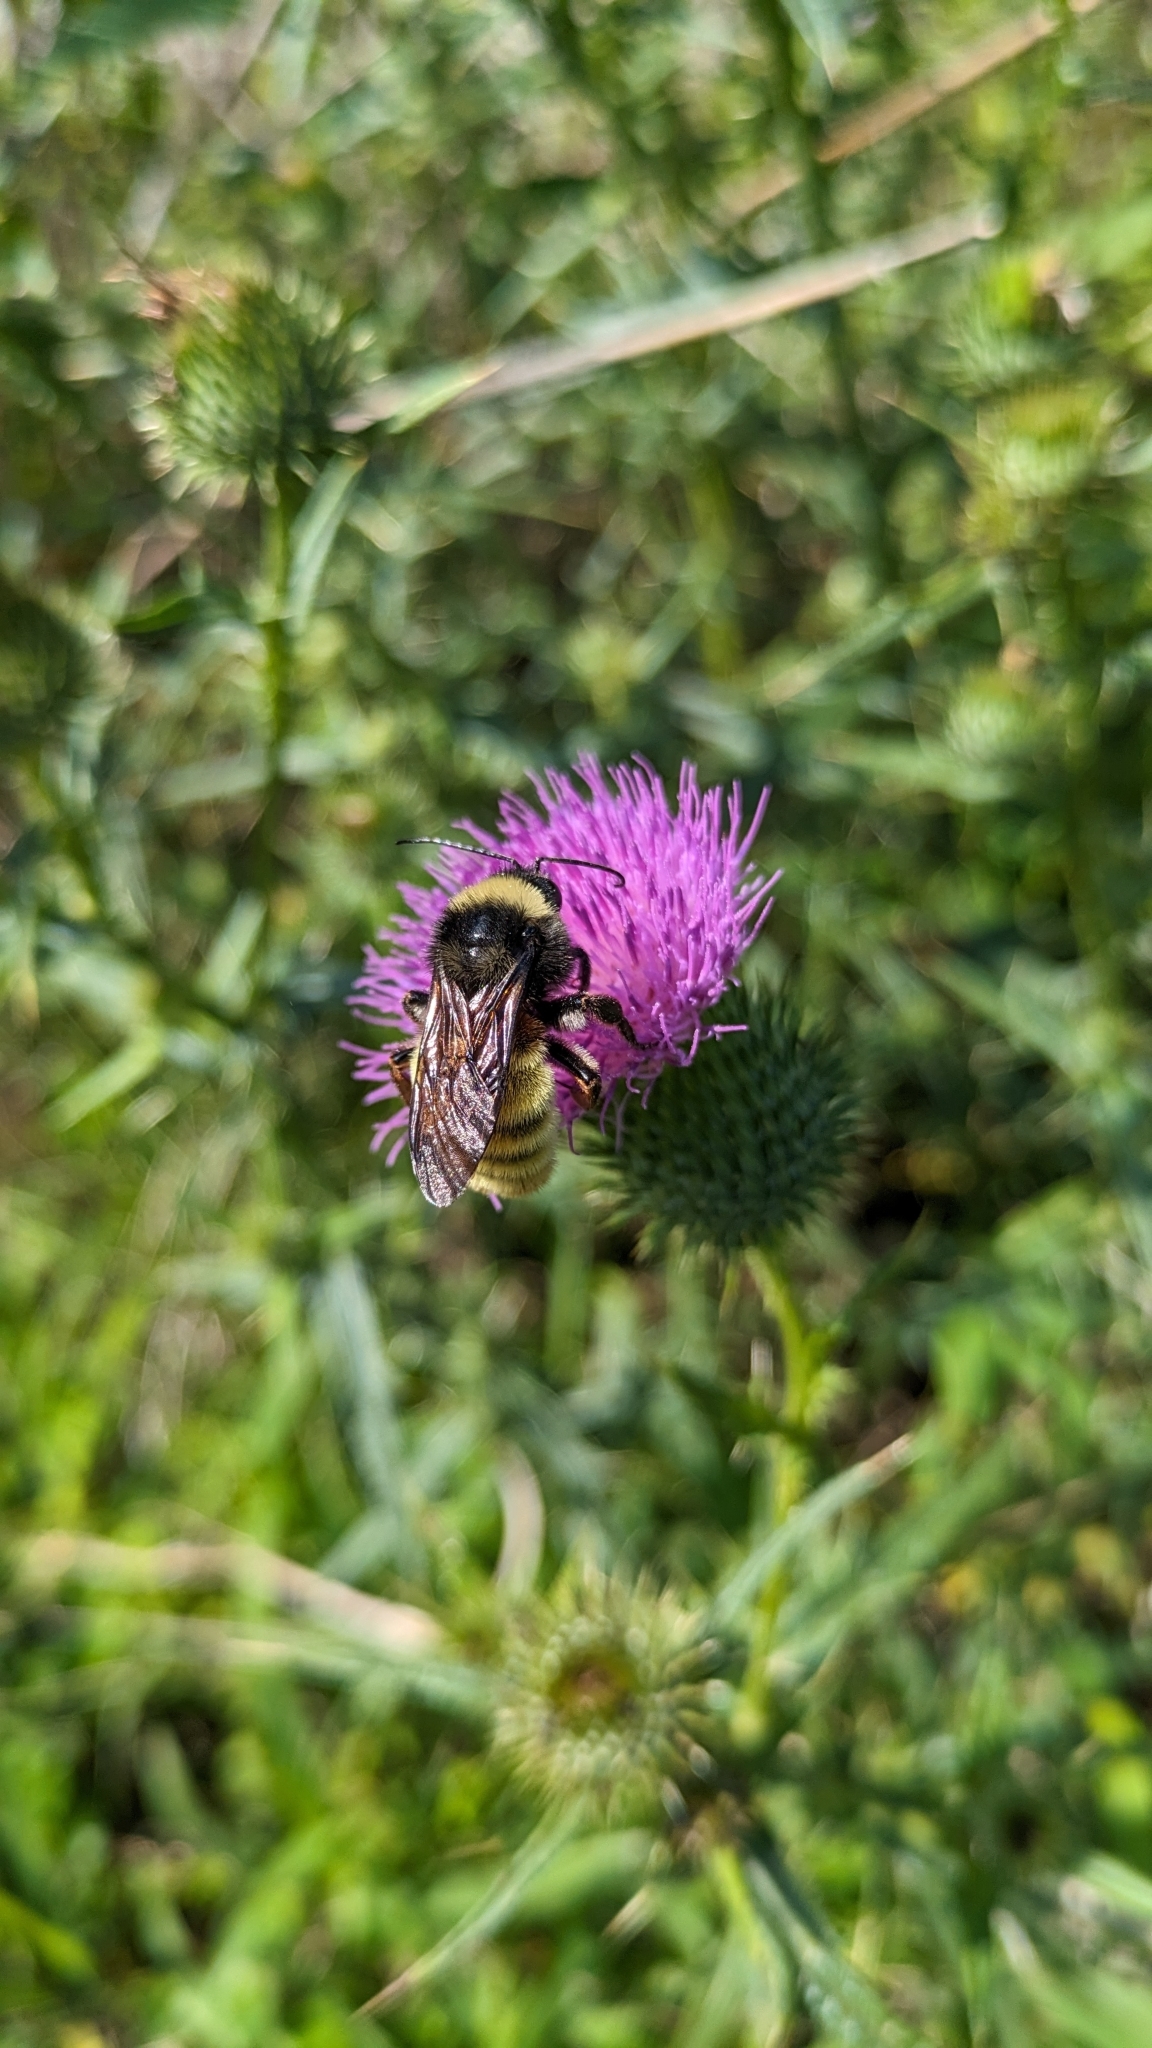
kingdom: Animalia
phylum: Arthropoda
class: Insecta
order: Hymenoptera
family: Apidae
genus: Bombus
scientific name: Bombus pensylvanicus
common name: Bumble bee
